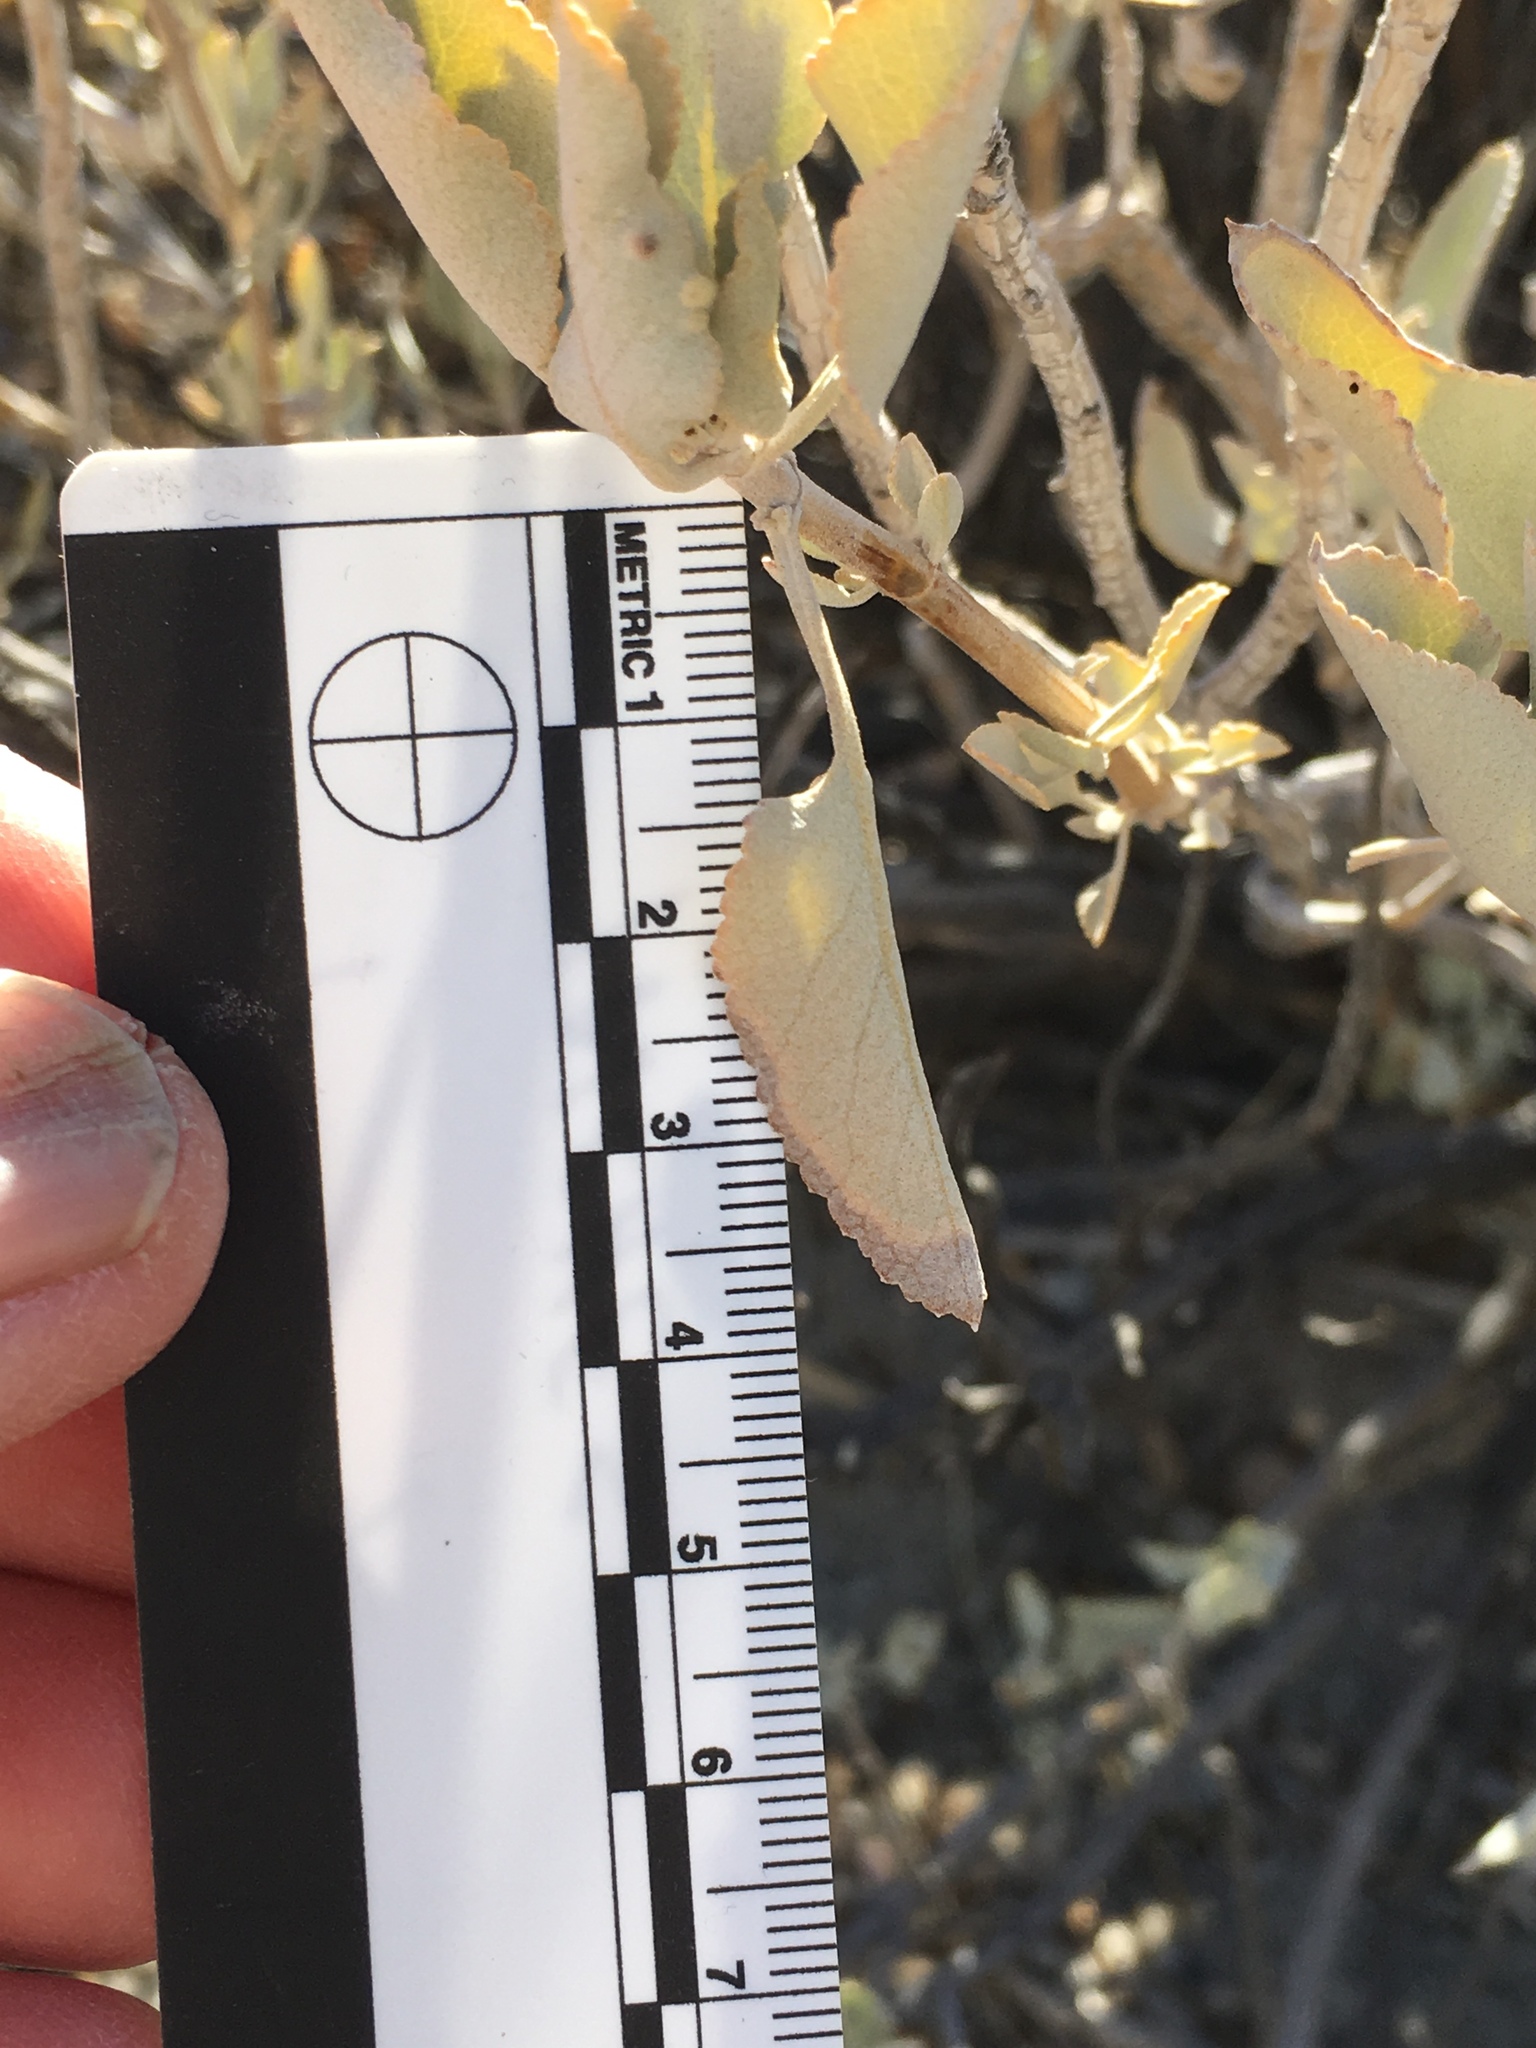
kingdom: Plantae
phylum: Tracheophyta
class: Magnoliopsida
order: Lamiales
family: Lamiaceae
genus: Salvia
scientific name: Salvia vaseyi
